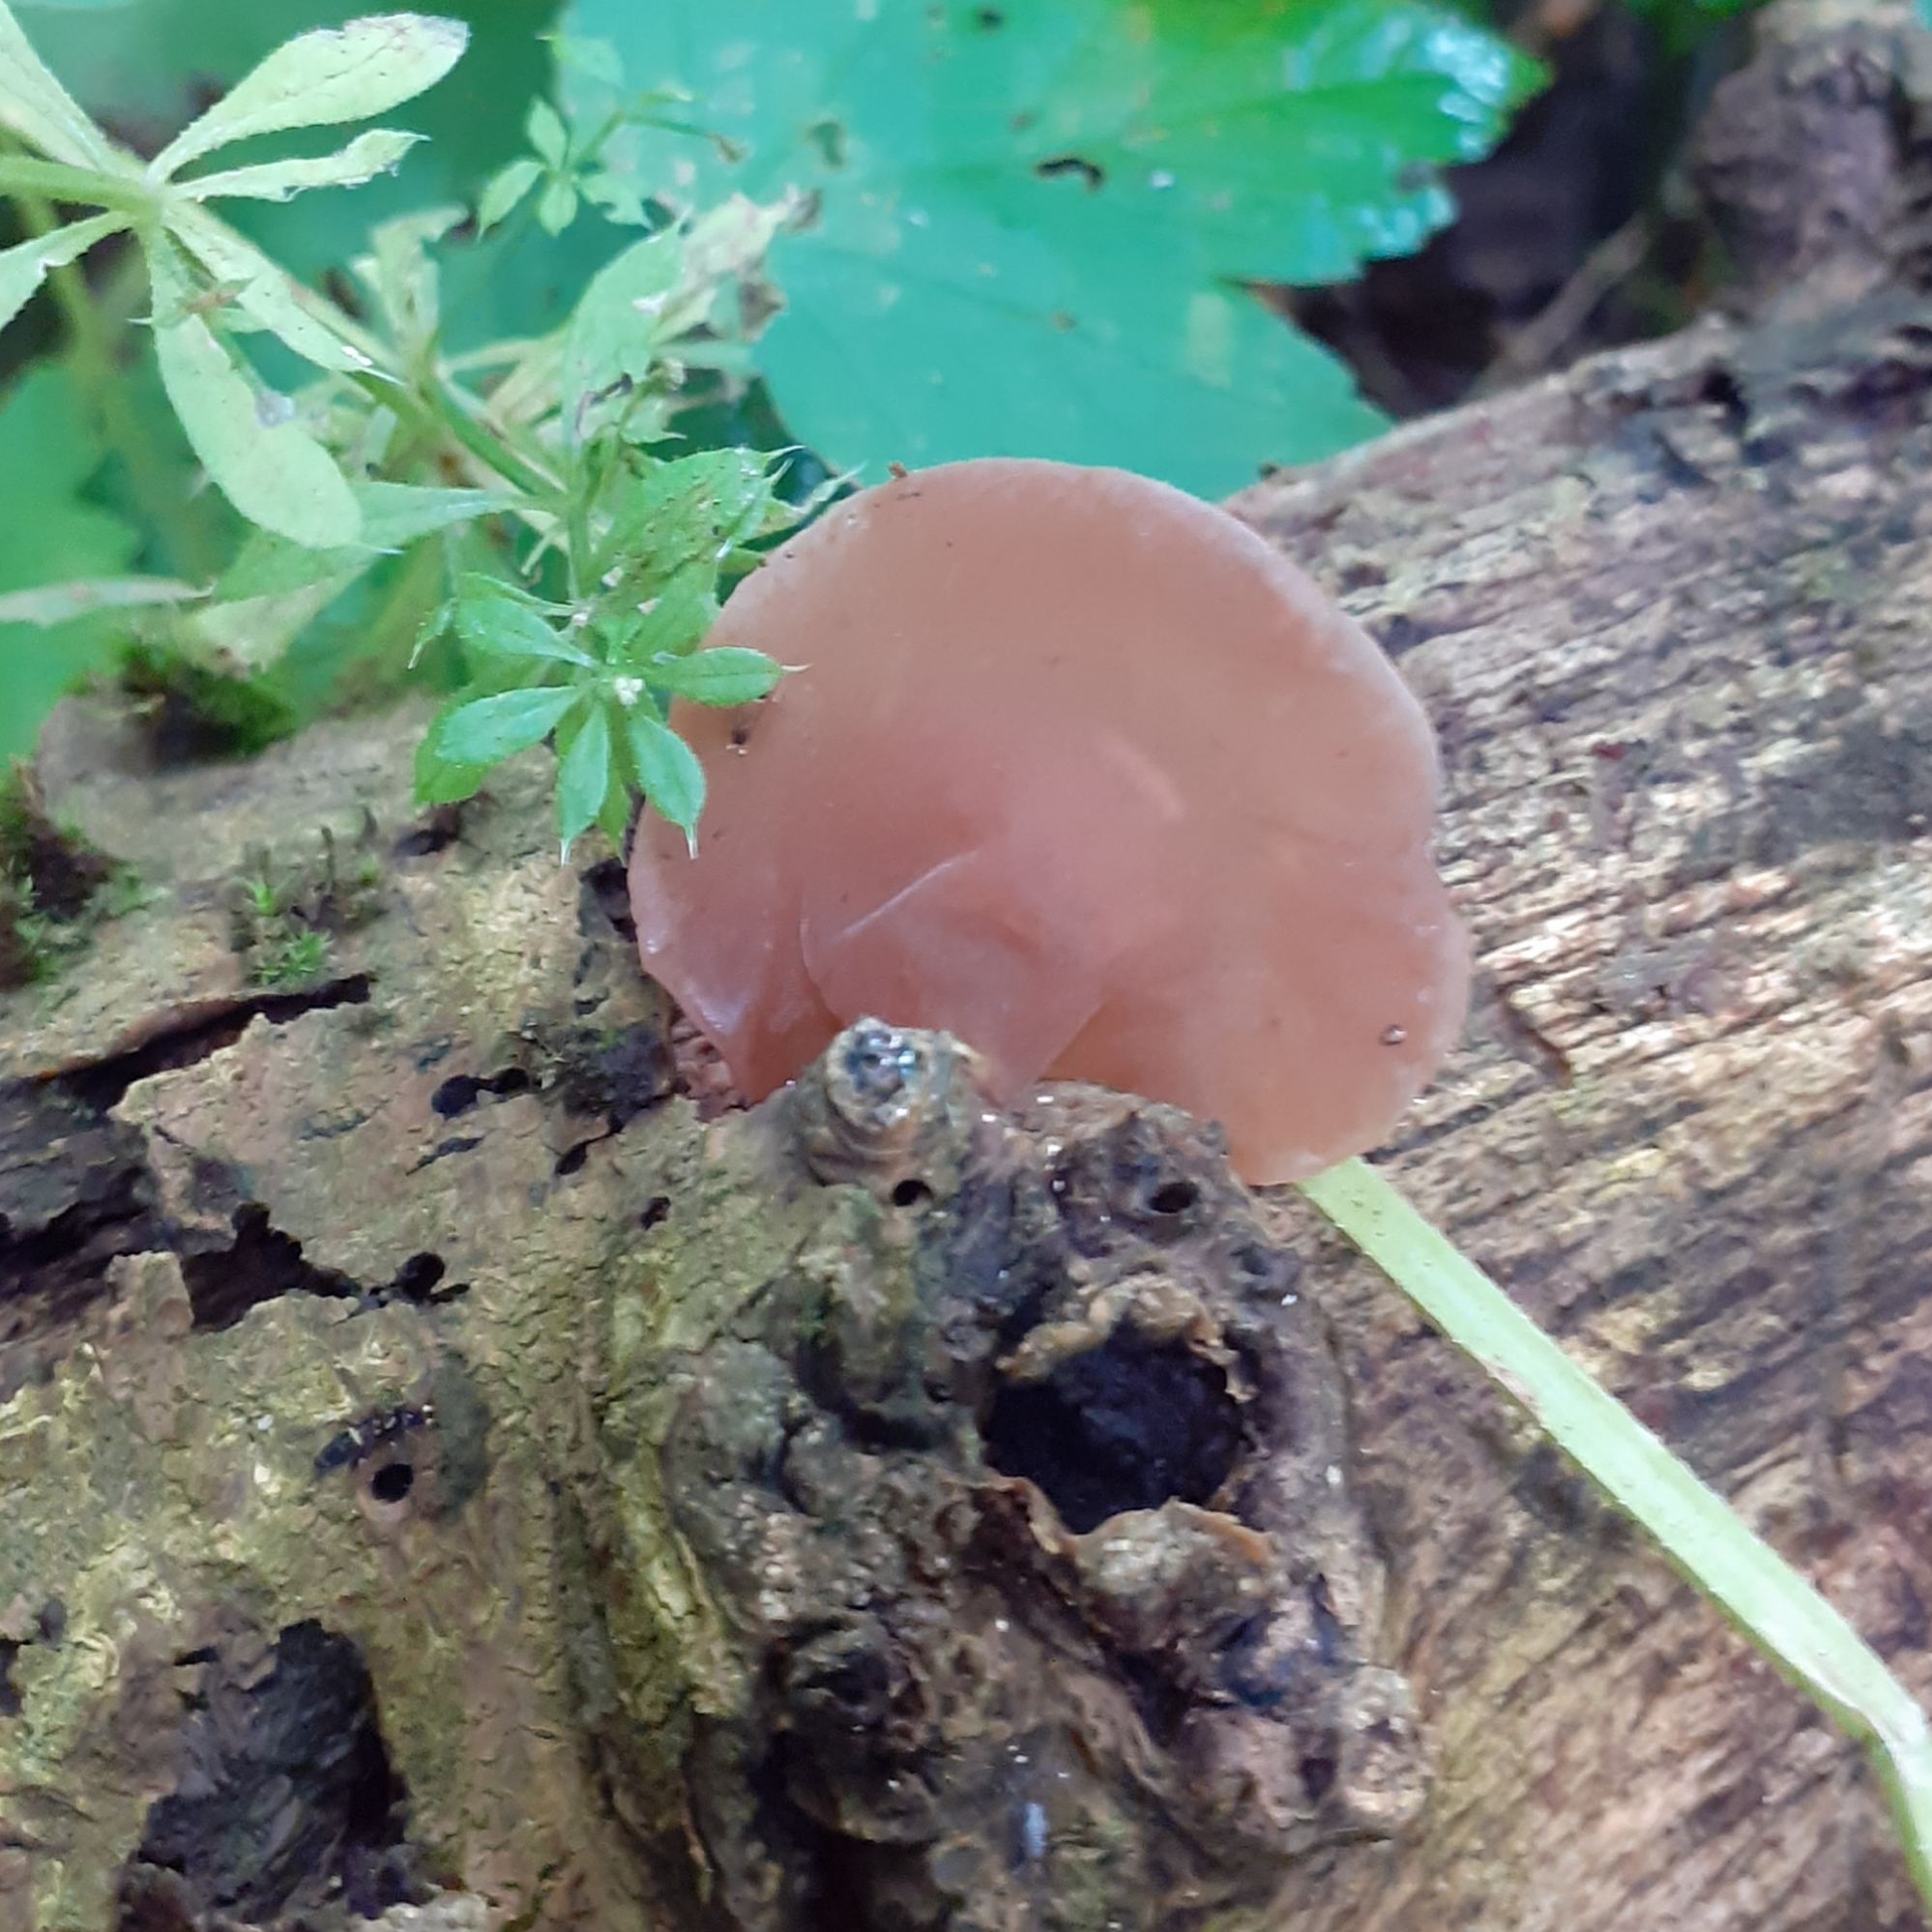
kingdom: Fungi
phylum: Basidiomycota
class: Agaricomycetes
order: Auriculariales
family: Auriculariaceae
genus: Auricularia
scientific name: Auricularia auricula-judae
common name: Jelly ear
